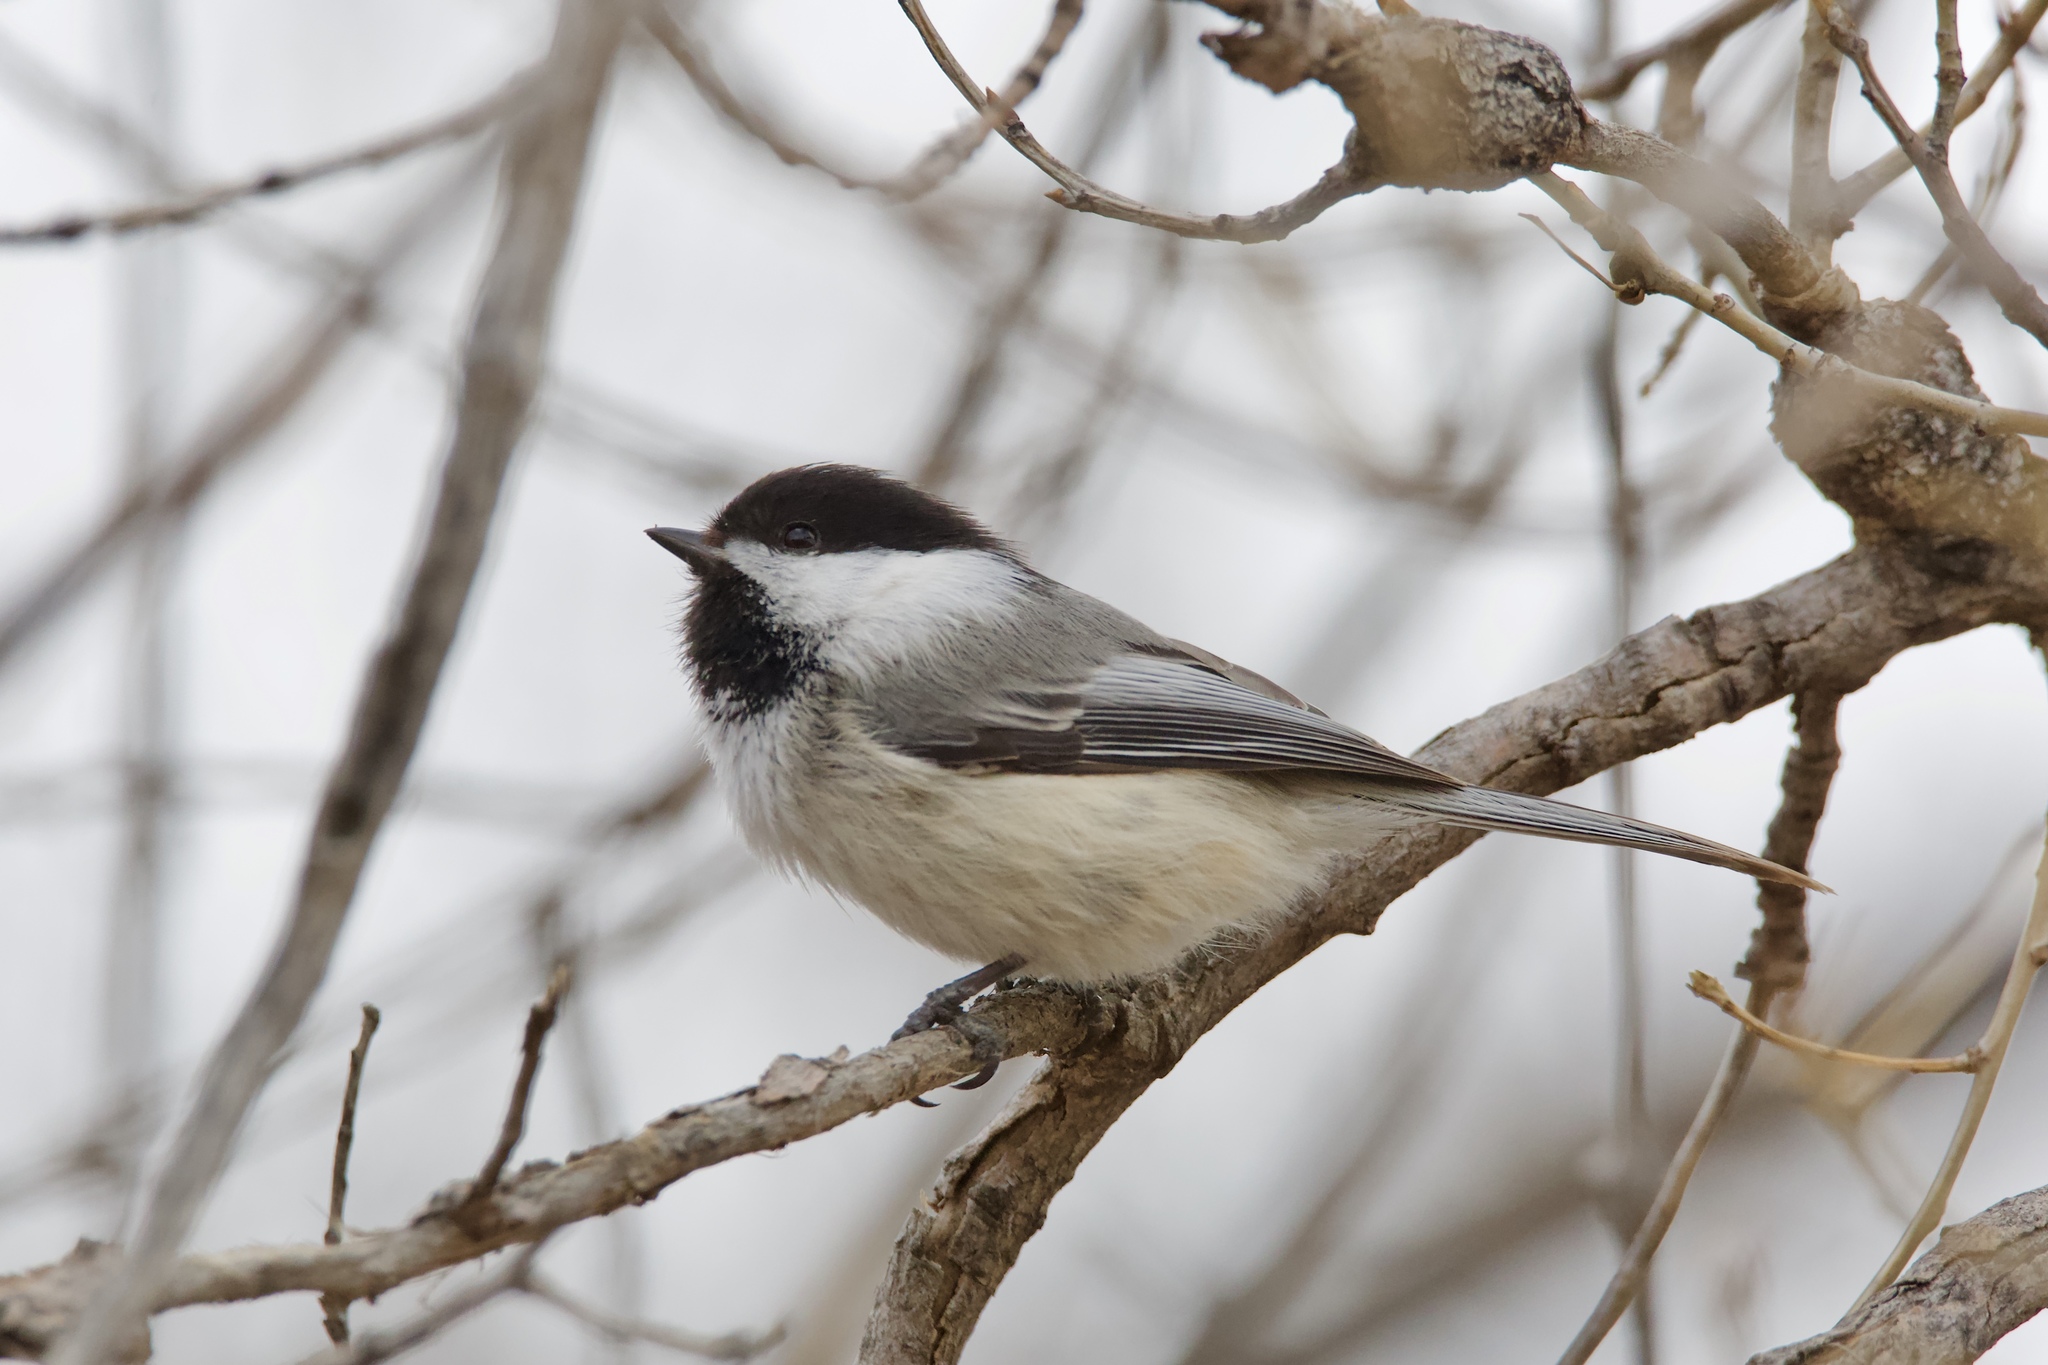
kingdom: Animalia
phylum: Chordata
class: Aves
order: Passeriformes
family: Paridae
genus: Poecile
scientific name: Poecile atricapillus
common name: Black-capped chickadee
